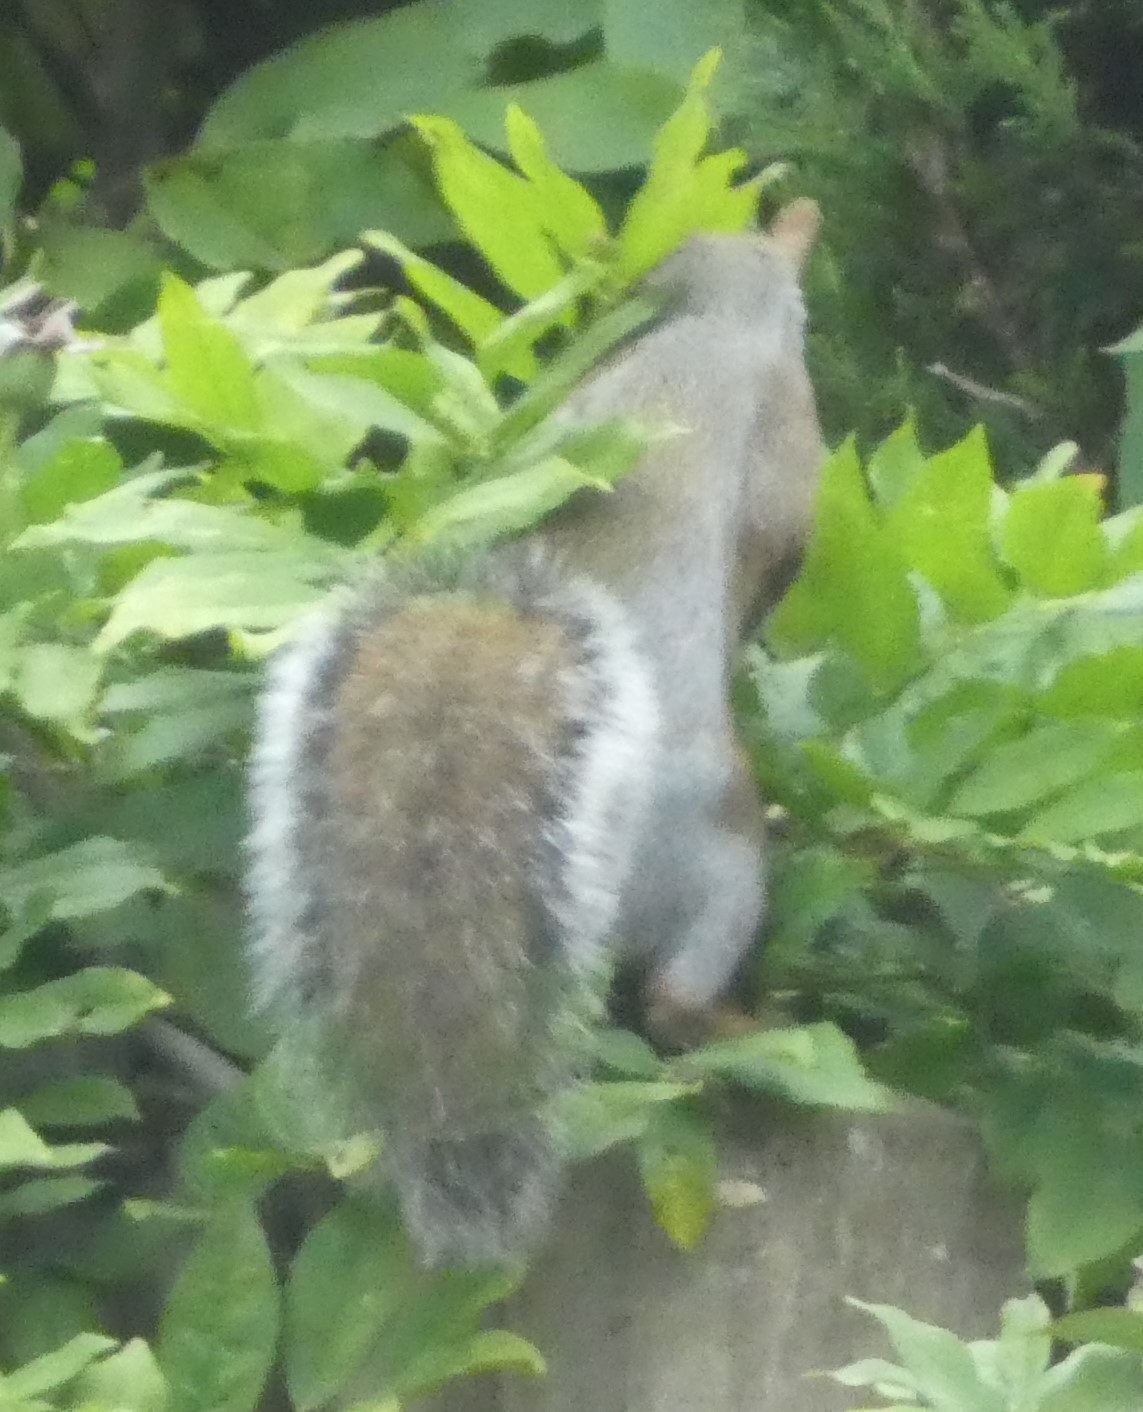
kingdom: Animalia
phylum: Chordata
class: Mammalia
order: Rodentia
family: Sciuridae
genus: Sciurus
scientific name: Sciurus carolinensis
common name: Eastern gray squirrel
